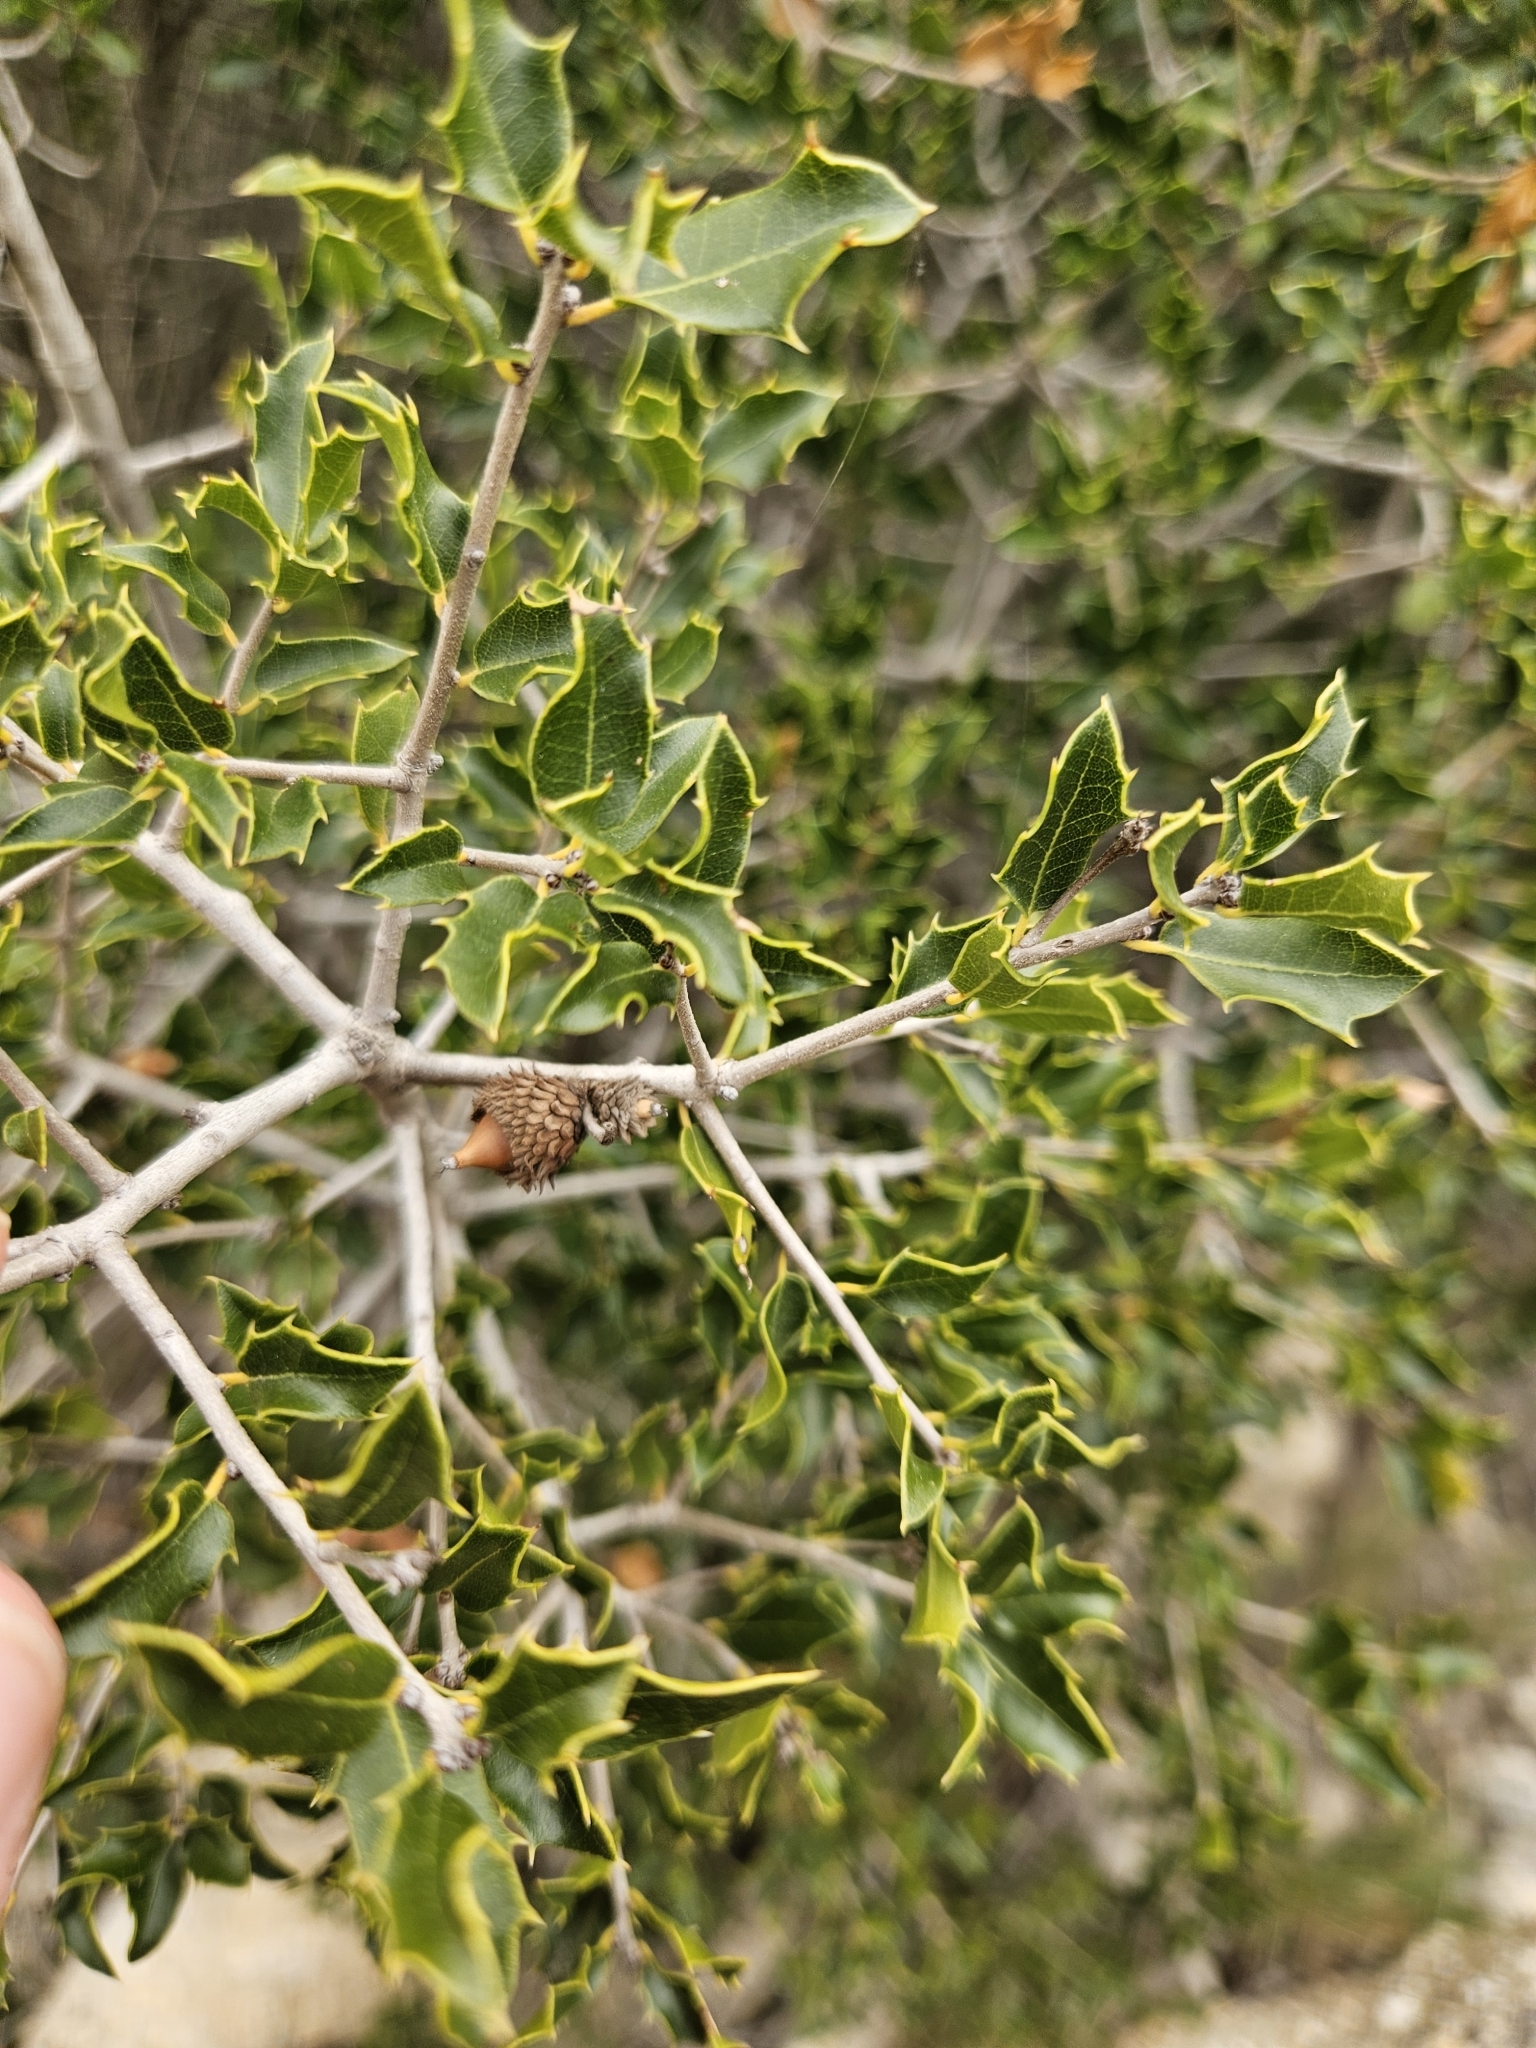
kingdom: Plantae
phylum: Tracheophyta
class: Magnoliopsida
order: Fagales
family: Fagaceae
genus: Quercus
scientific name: Quercus coccifera
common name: Kermes oak
